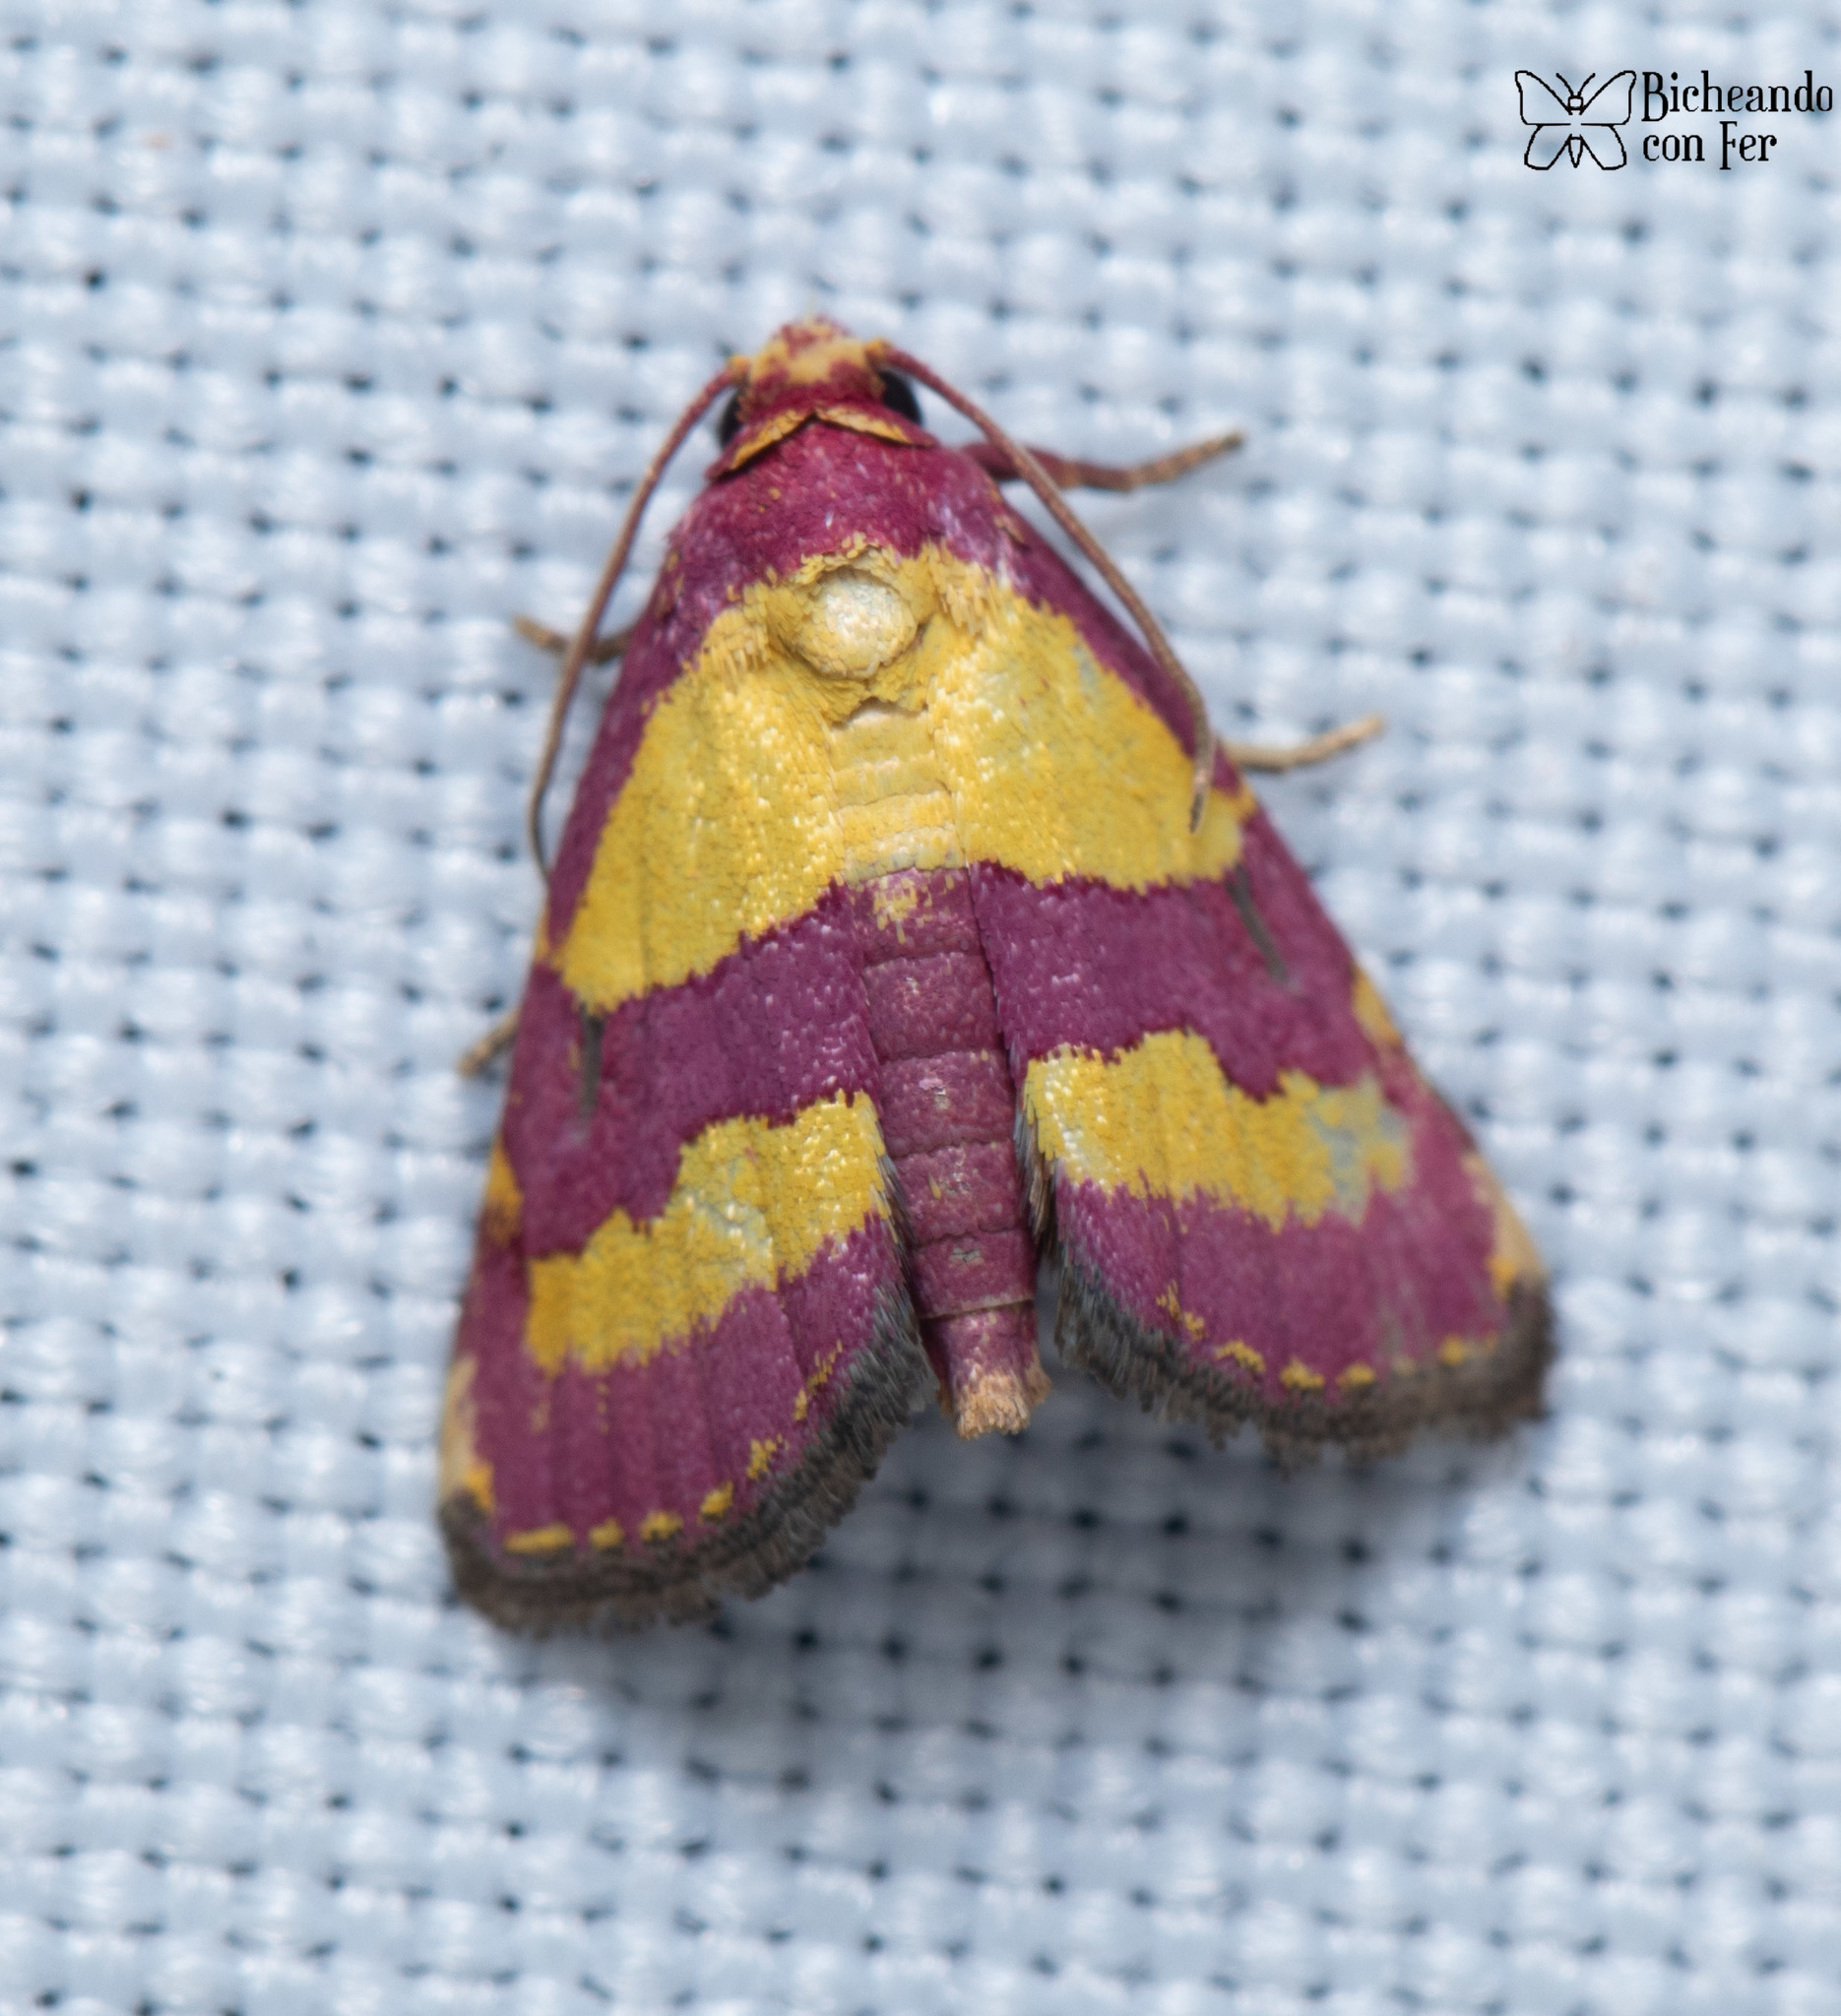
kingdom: Animalia
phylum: Arthropoda
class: Insecta
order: Lepidoptera
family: Noctuidae
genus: Phoenicophanta
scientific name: Phoenicophanta bicolor
